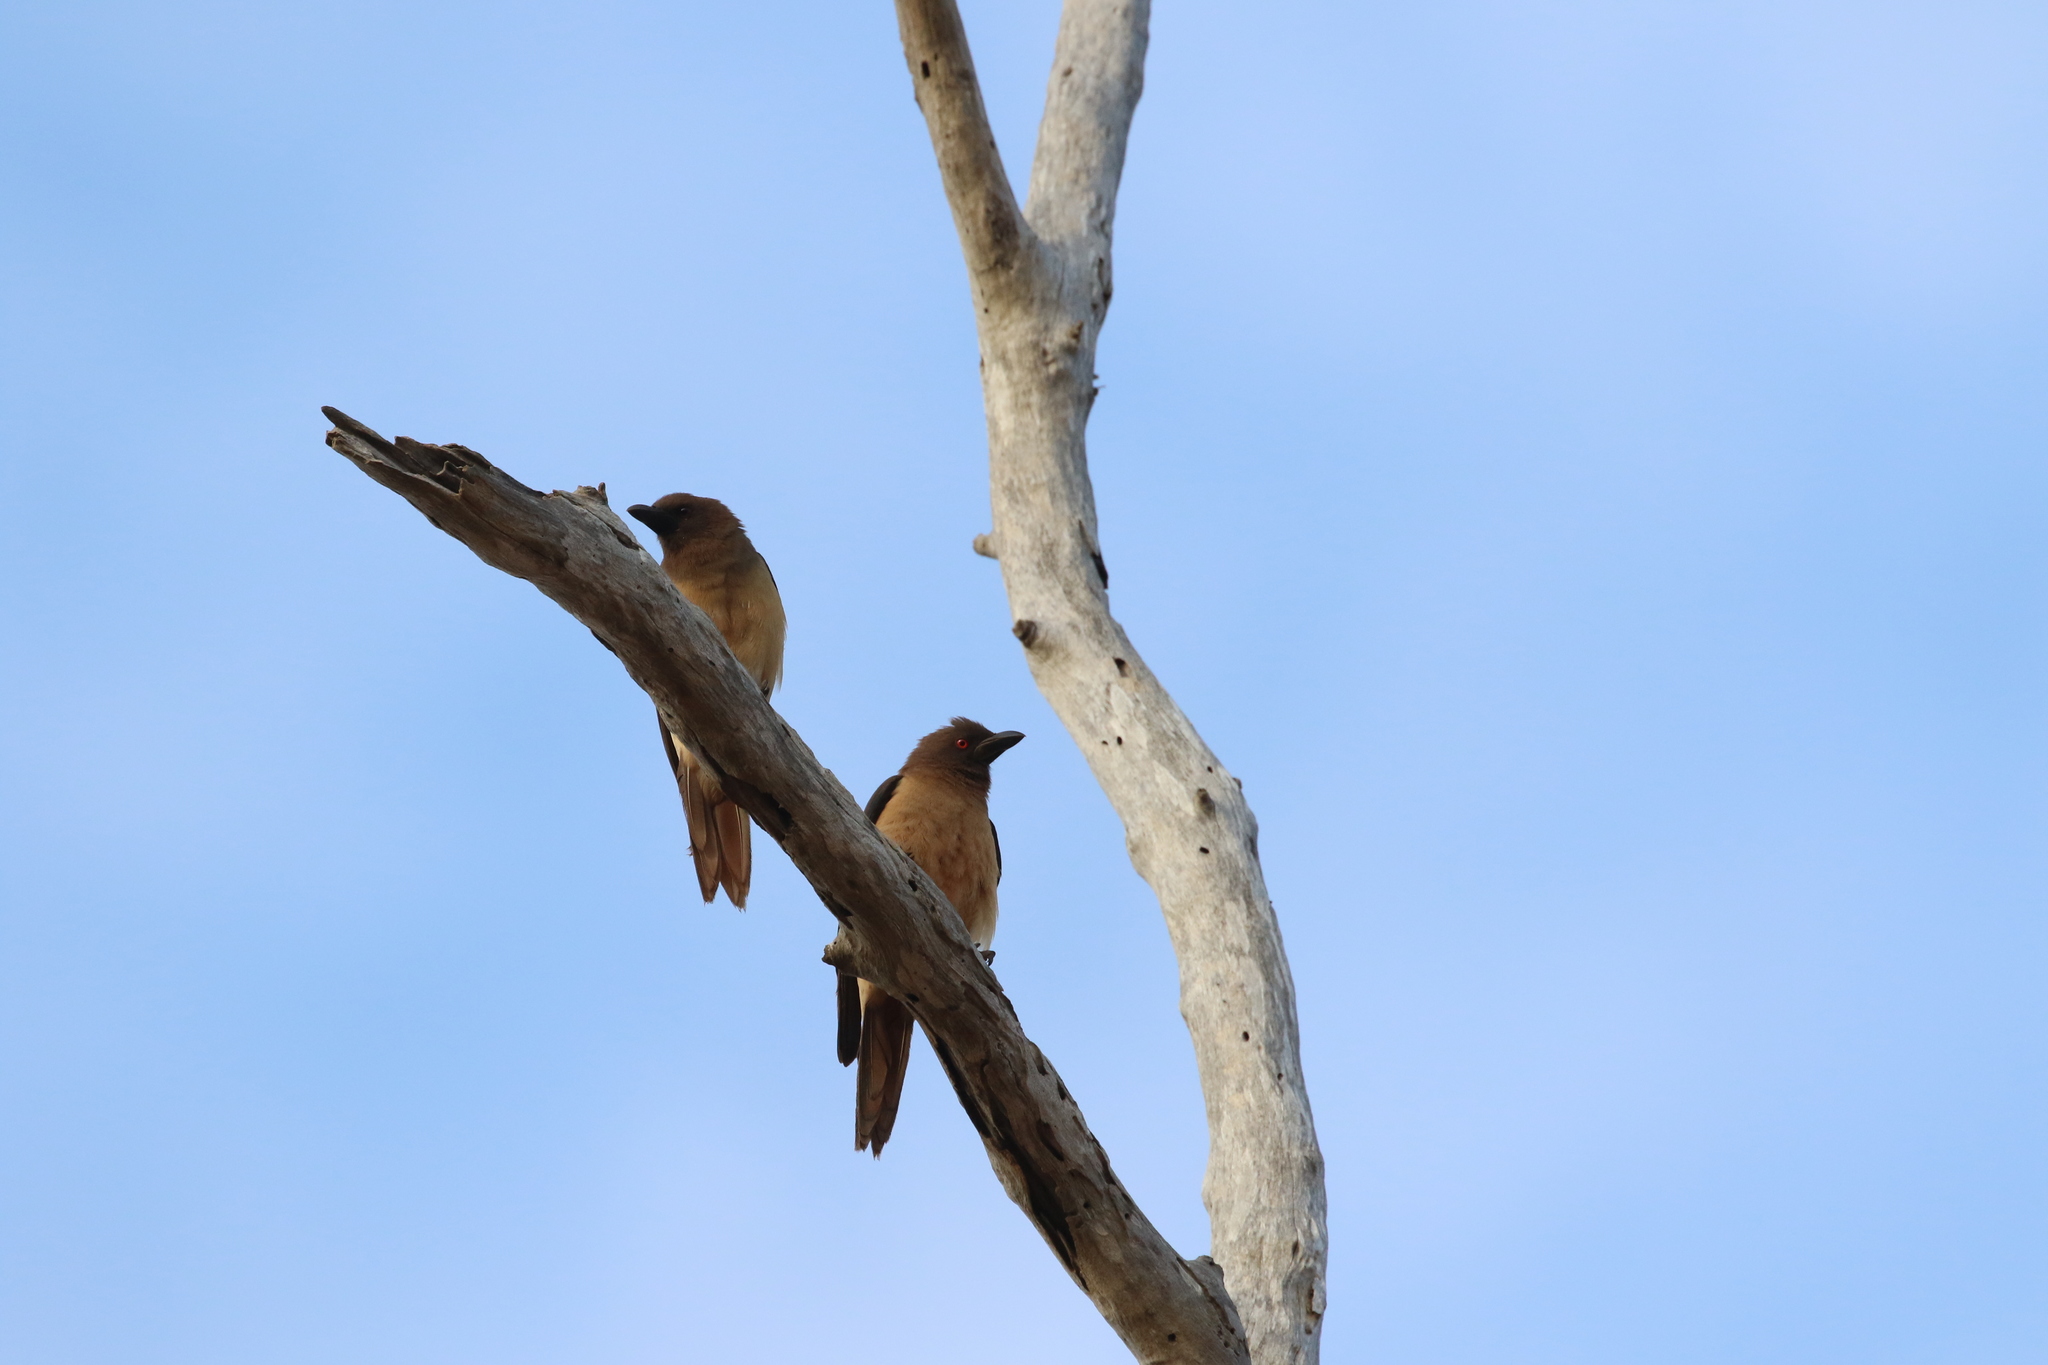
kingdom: Animalia
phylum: Chordata
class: Aves
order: Passeriformes
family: Buphagidae
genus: Buphagus
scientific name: Buphagus africanus
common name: Yellow-billed oxpecker
